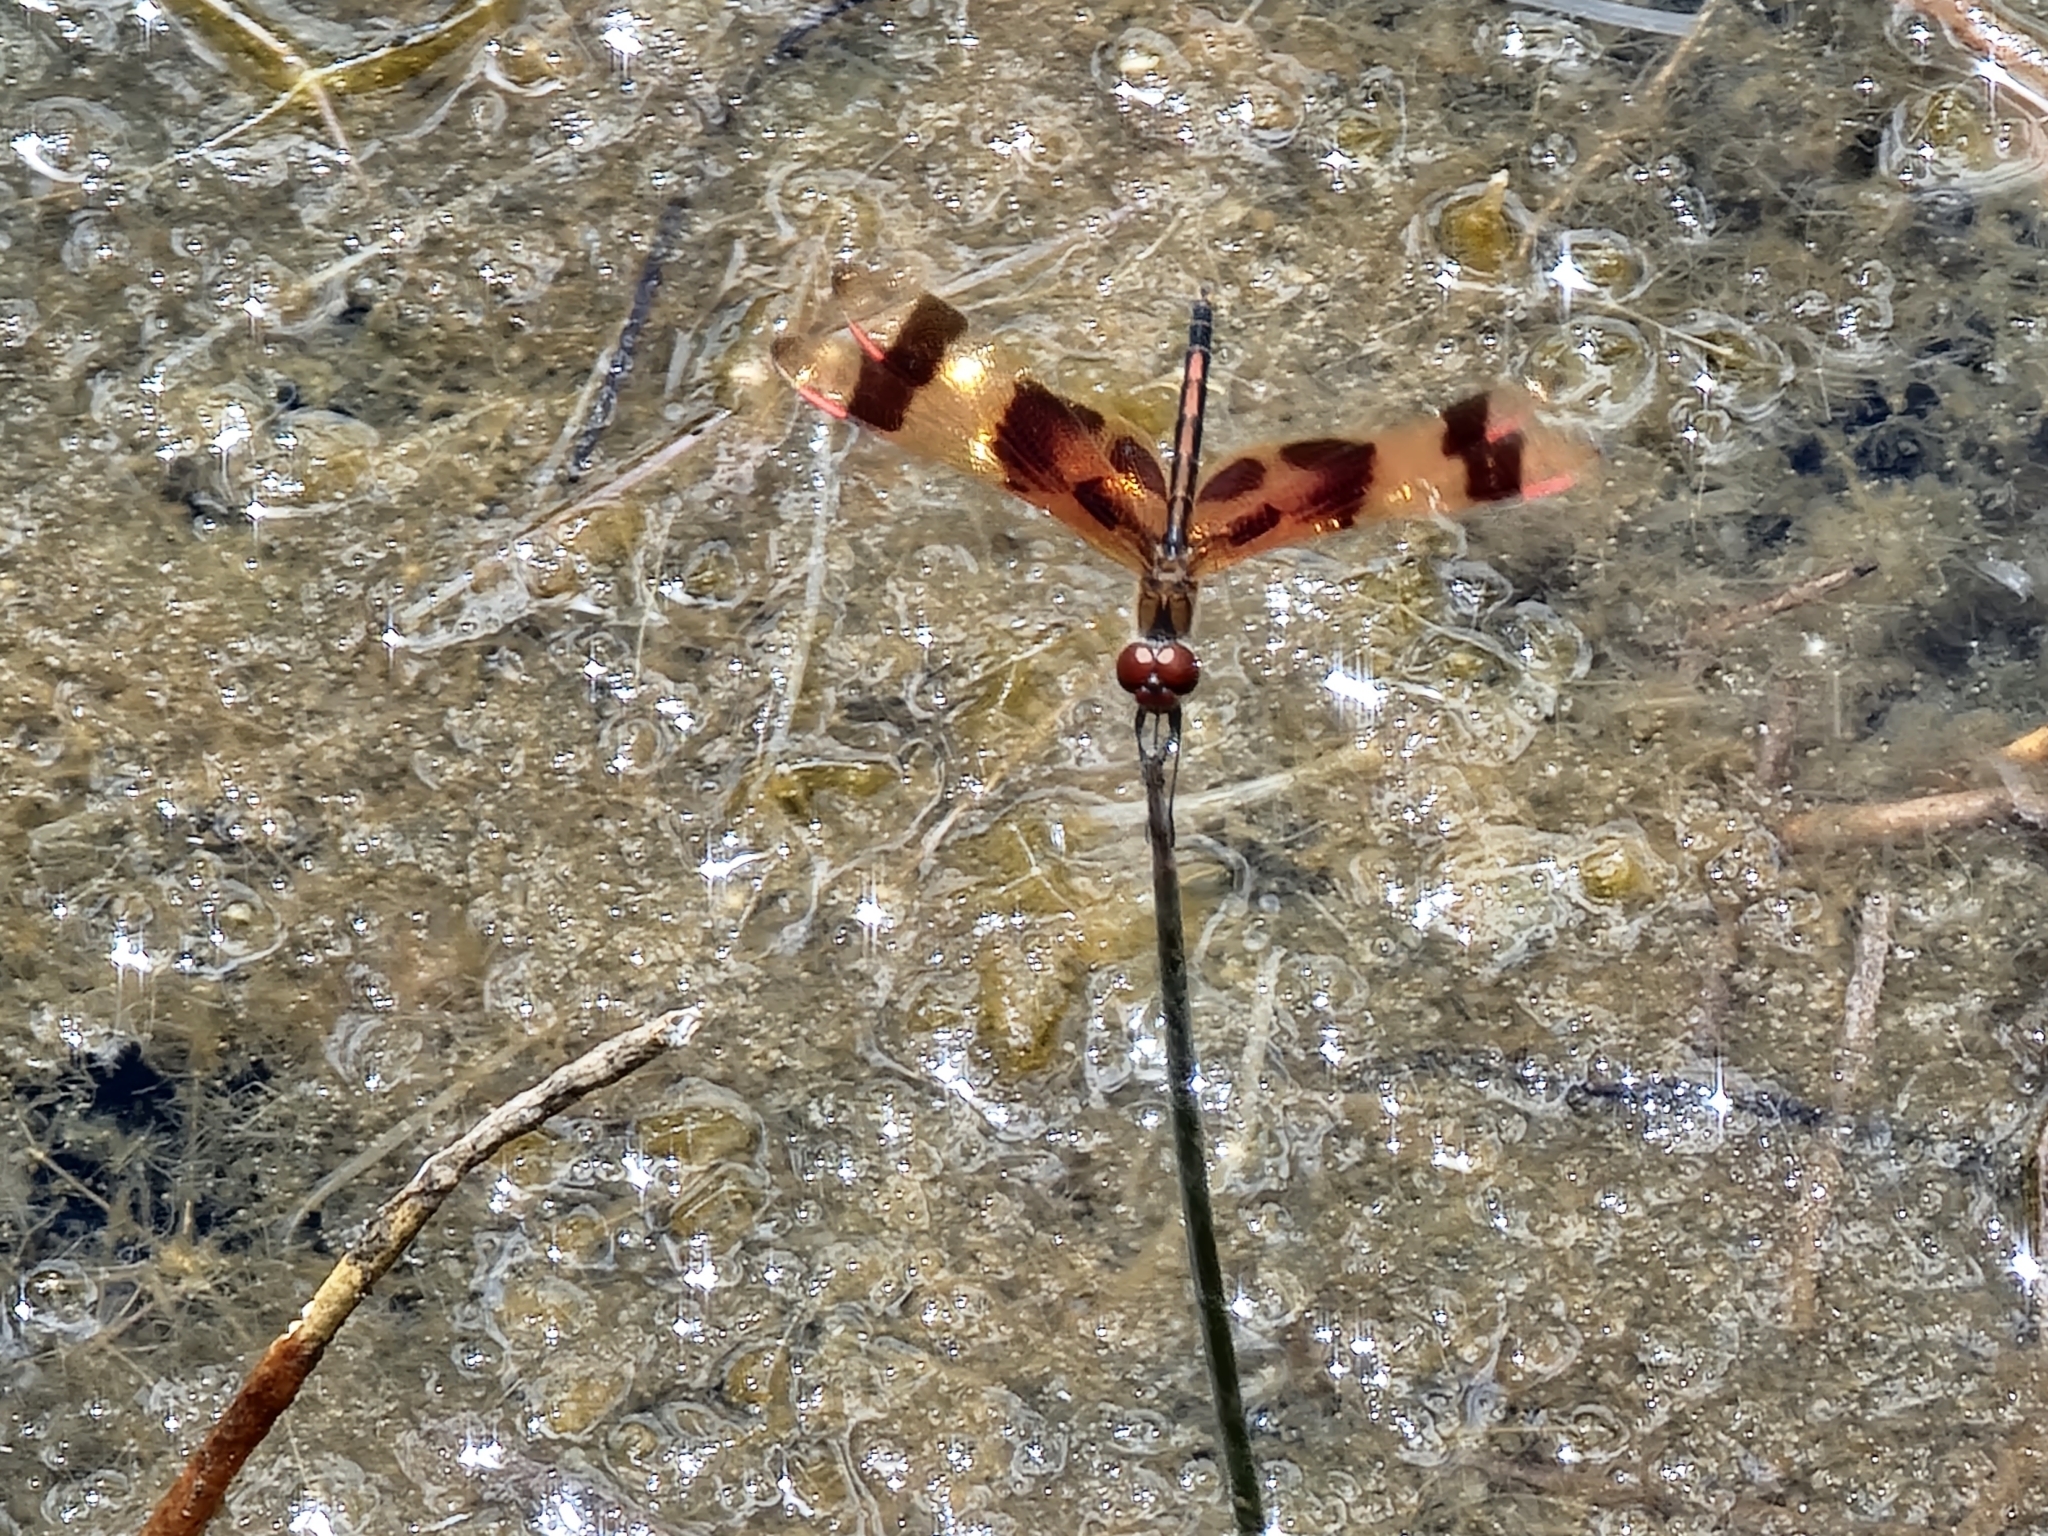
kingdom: Animalia
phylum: Arthropoda
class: Insecta
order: Odonata
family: Libellulidae
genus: Celithemis
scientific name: Celithemis eponina
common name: Halloween pennant
